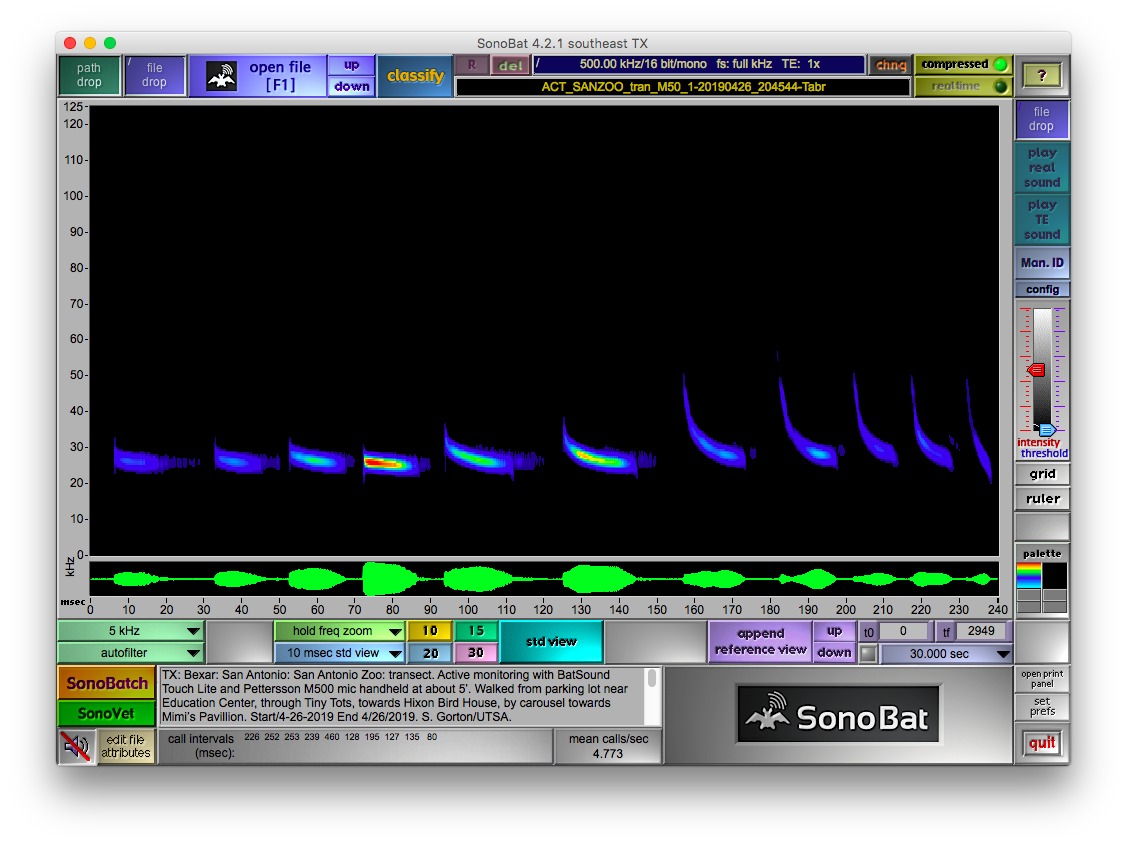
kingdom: Animalia
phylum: Chordata
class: Mammalia
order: Chiroptera
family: Molossidae
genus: Tadarida
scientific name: Tadarida brasiliensis
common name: Mexican free-tailed bat
